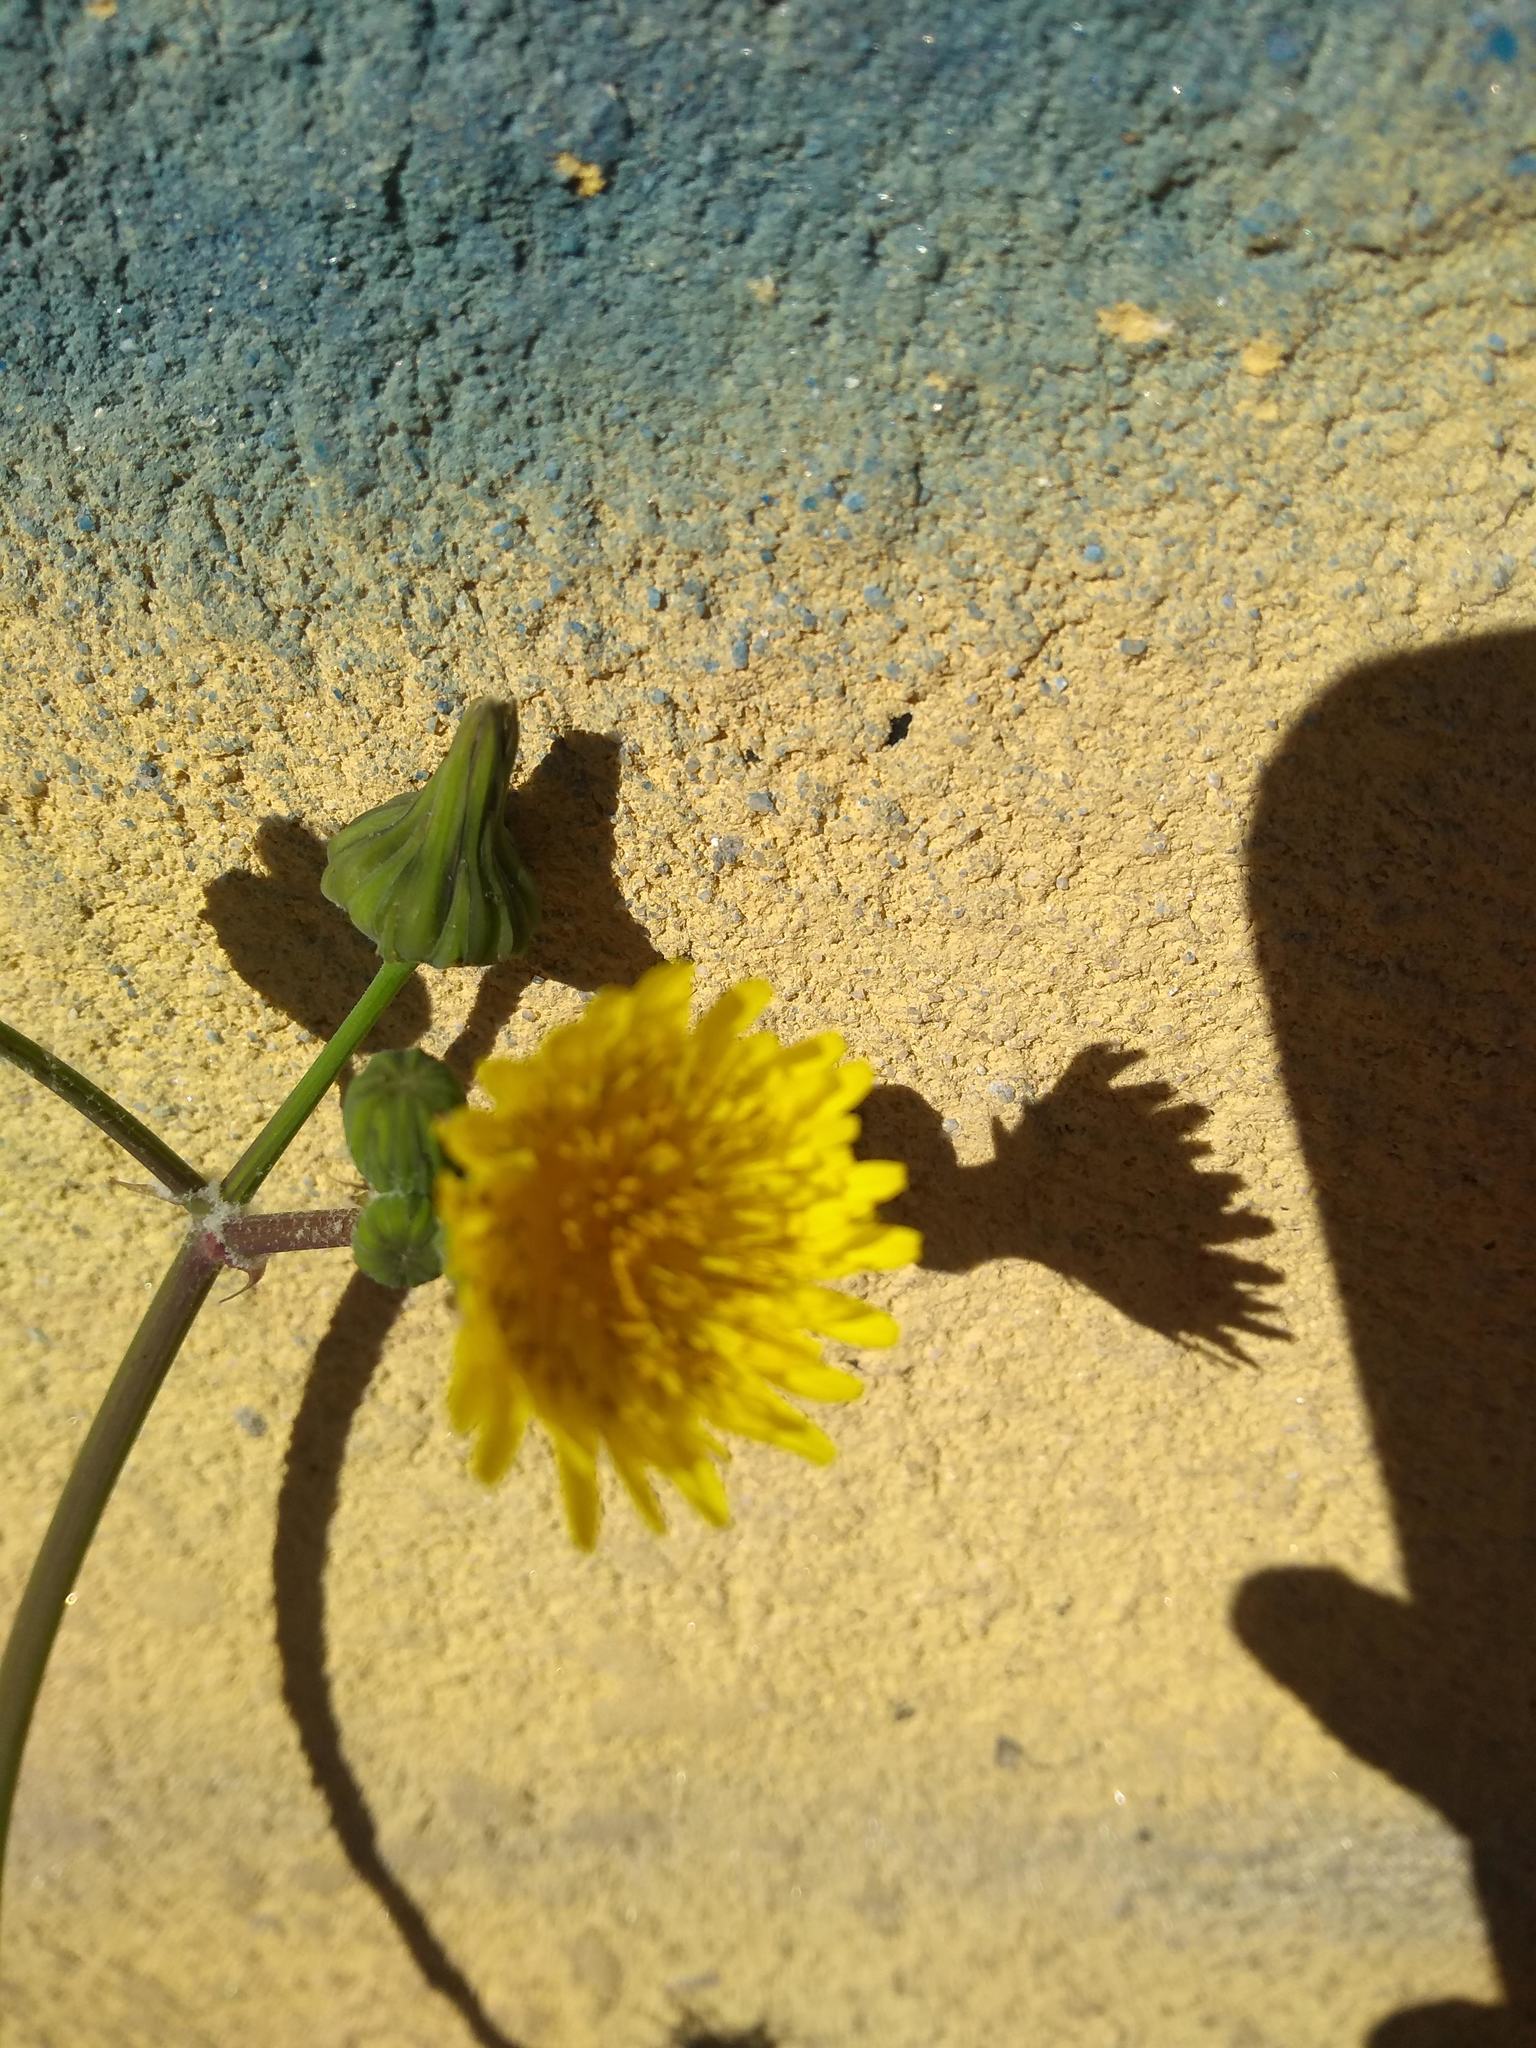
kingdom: Plantae
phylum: Tracheophyta
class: Magnoliopsida
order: Asterales
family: Asteraceae
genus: Sonchus
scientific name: Sonchus oleraceus
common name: Common sowthistle
